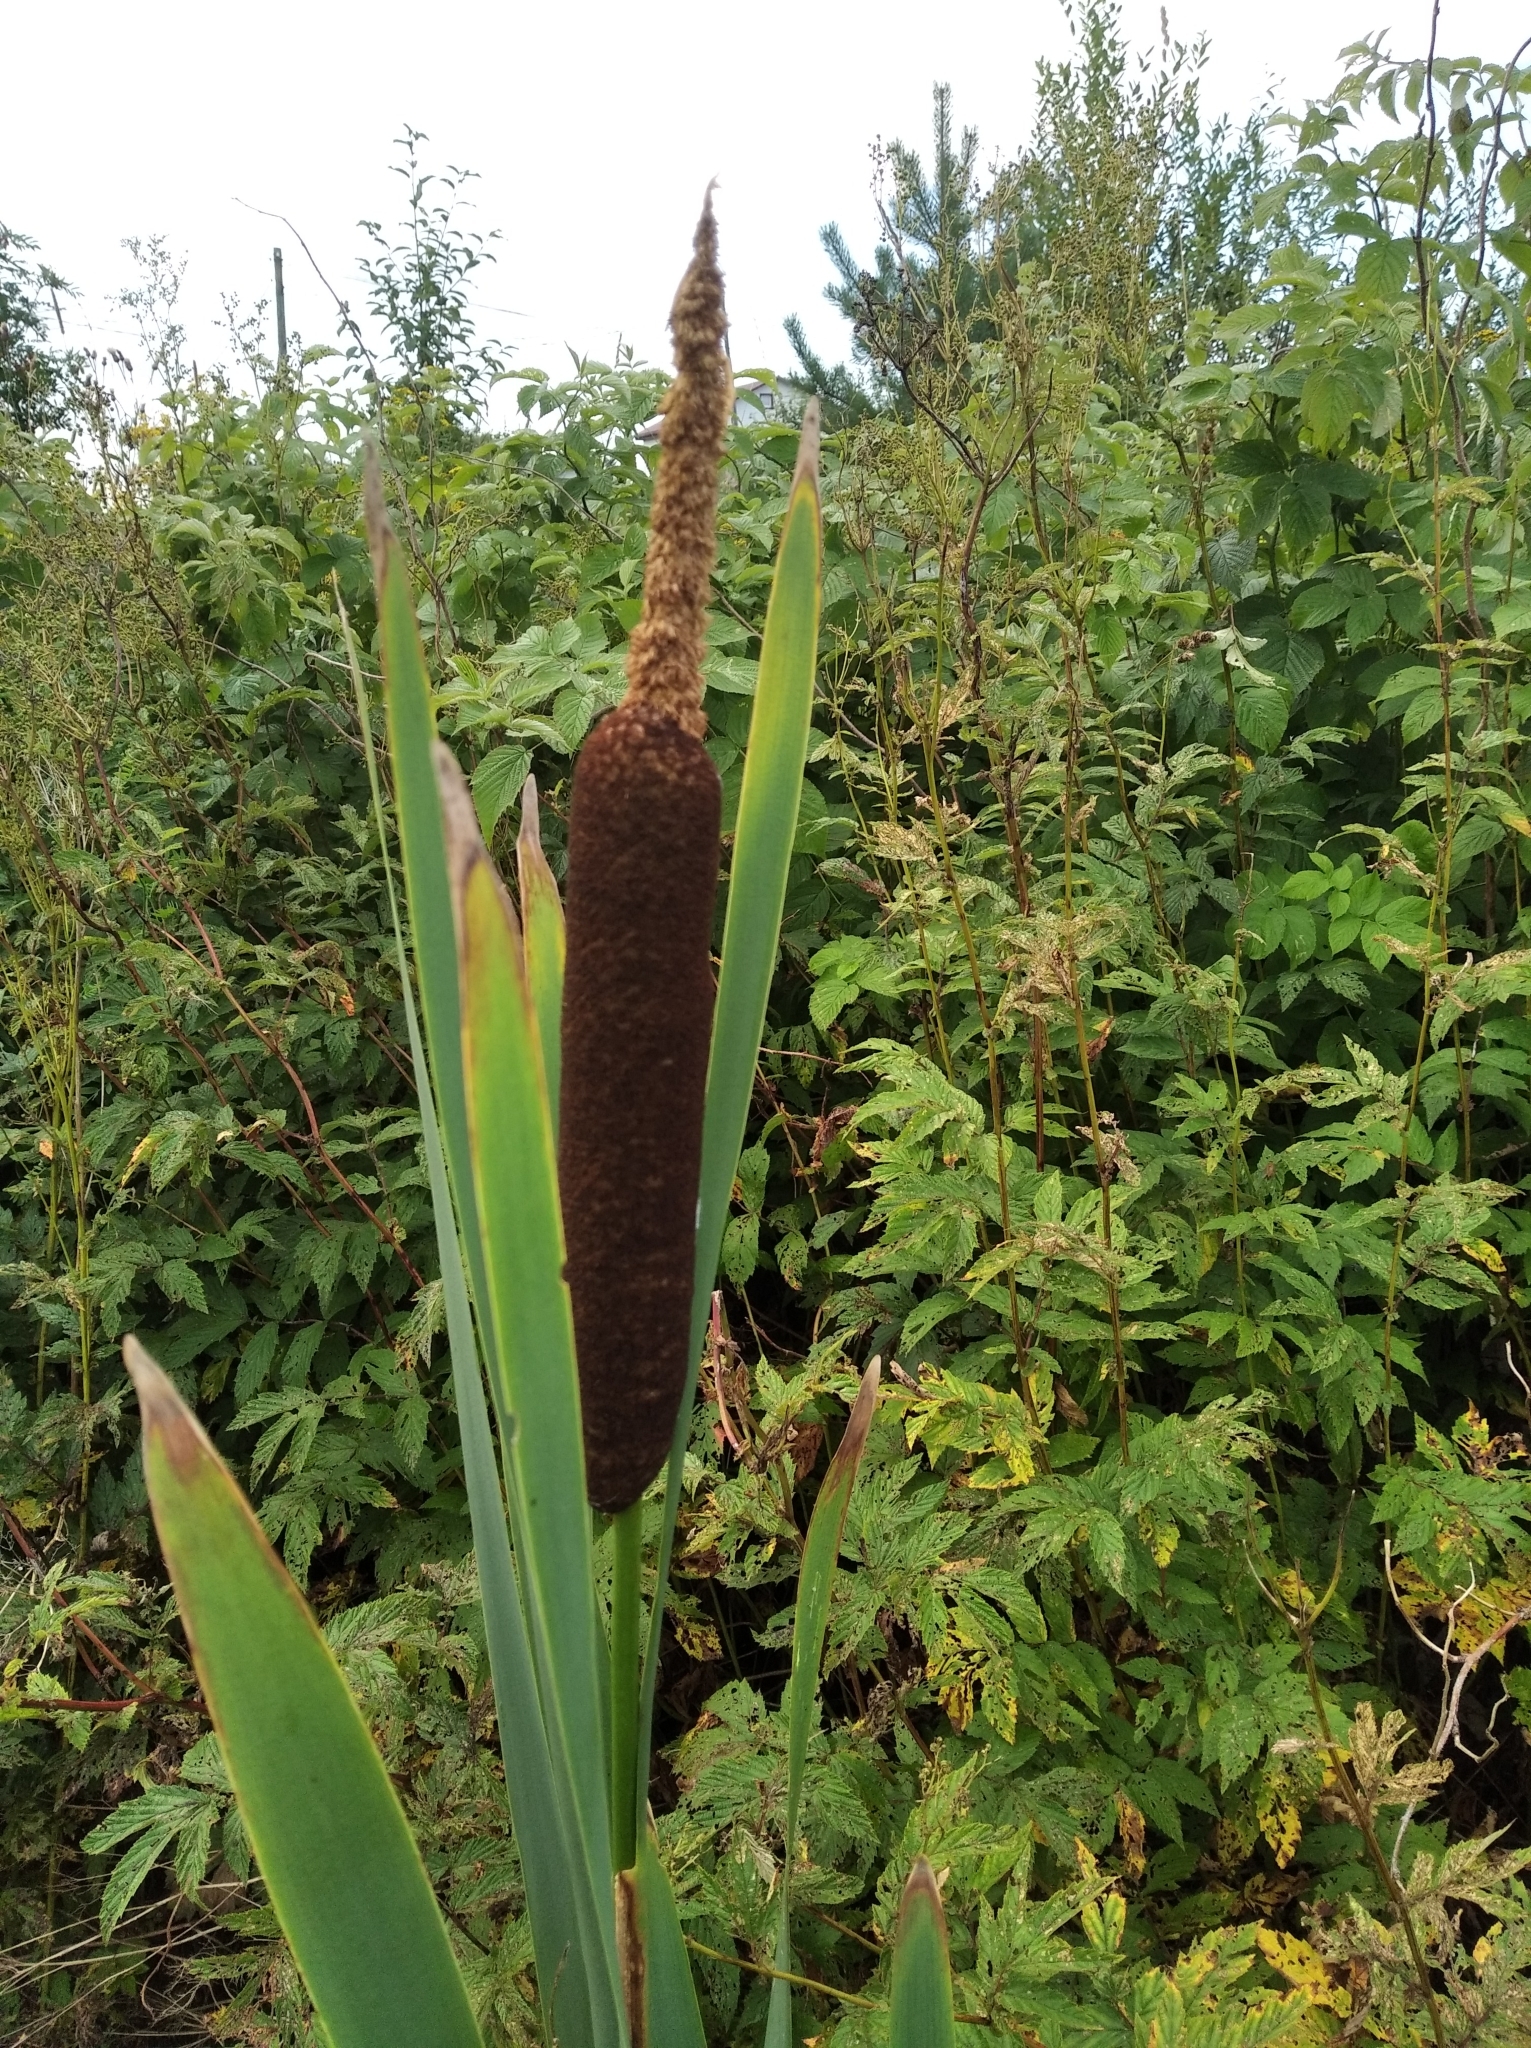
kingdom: Plantae
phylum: Tracheophyta
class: Liliopsida
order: Poales
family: Typhaceae
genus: Typha
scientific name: Typha latifolia
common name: Broadleaf cattail
